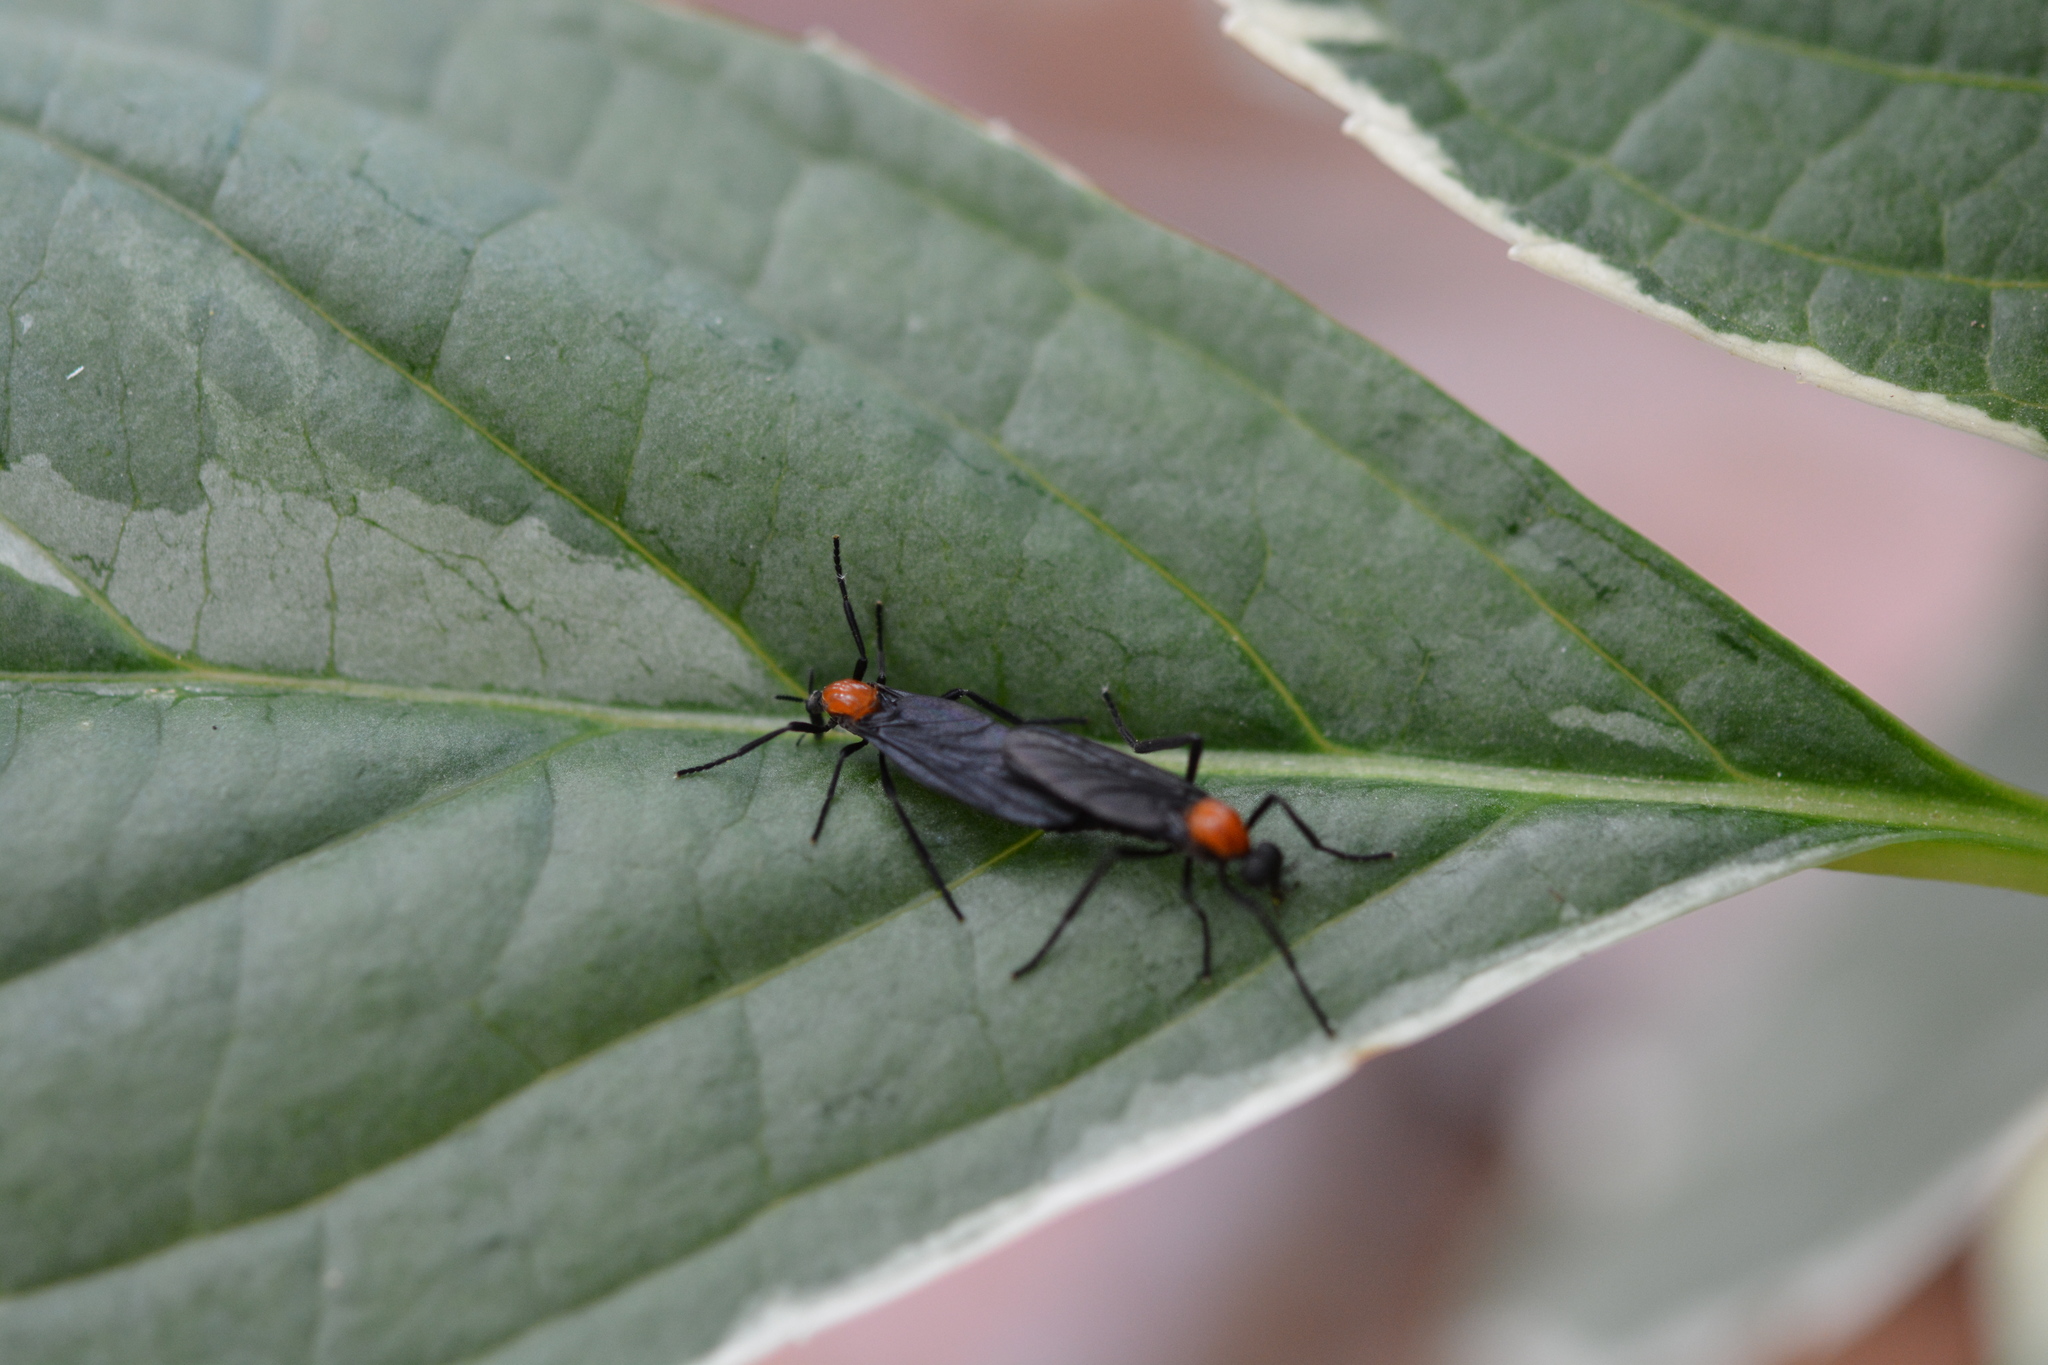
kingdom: Animalia
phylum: Arthropoda
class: Insecta
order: Diptera
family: Bibionidae
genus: Plecia
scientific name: Plecia nearctica
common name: March fly
